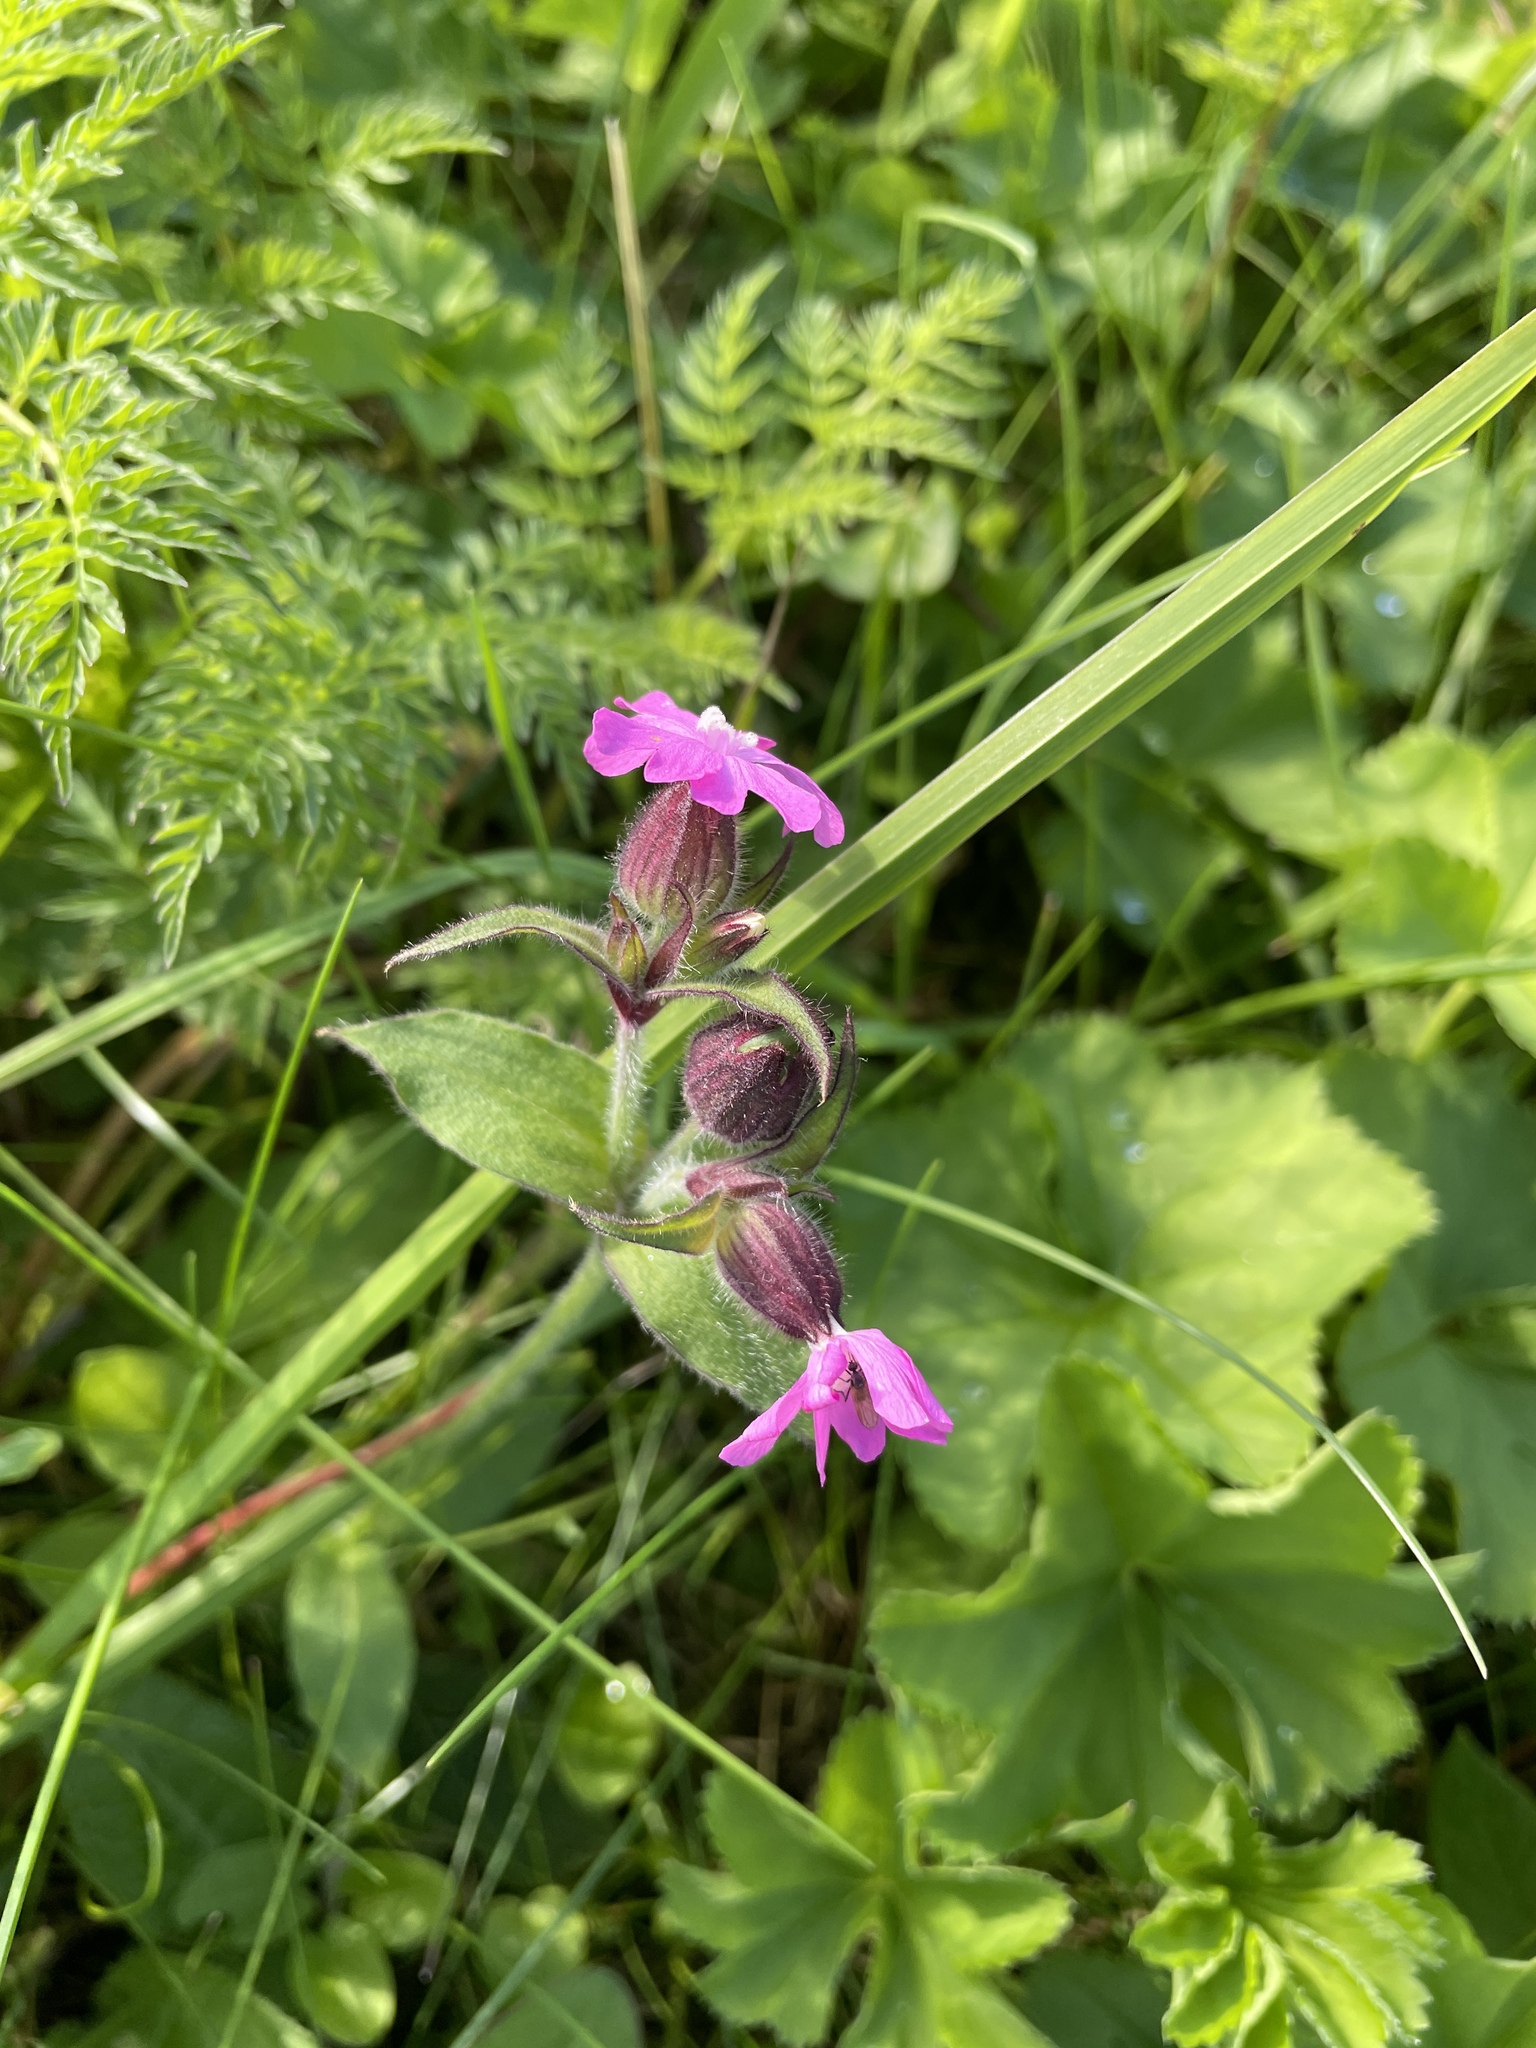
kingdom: Plantae
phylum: Tracheophyta
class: Magnoliopsida
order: Caryophyllales
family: Caryophyllaceae
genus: Silene
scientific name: Silene dioica
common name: Red campion
